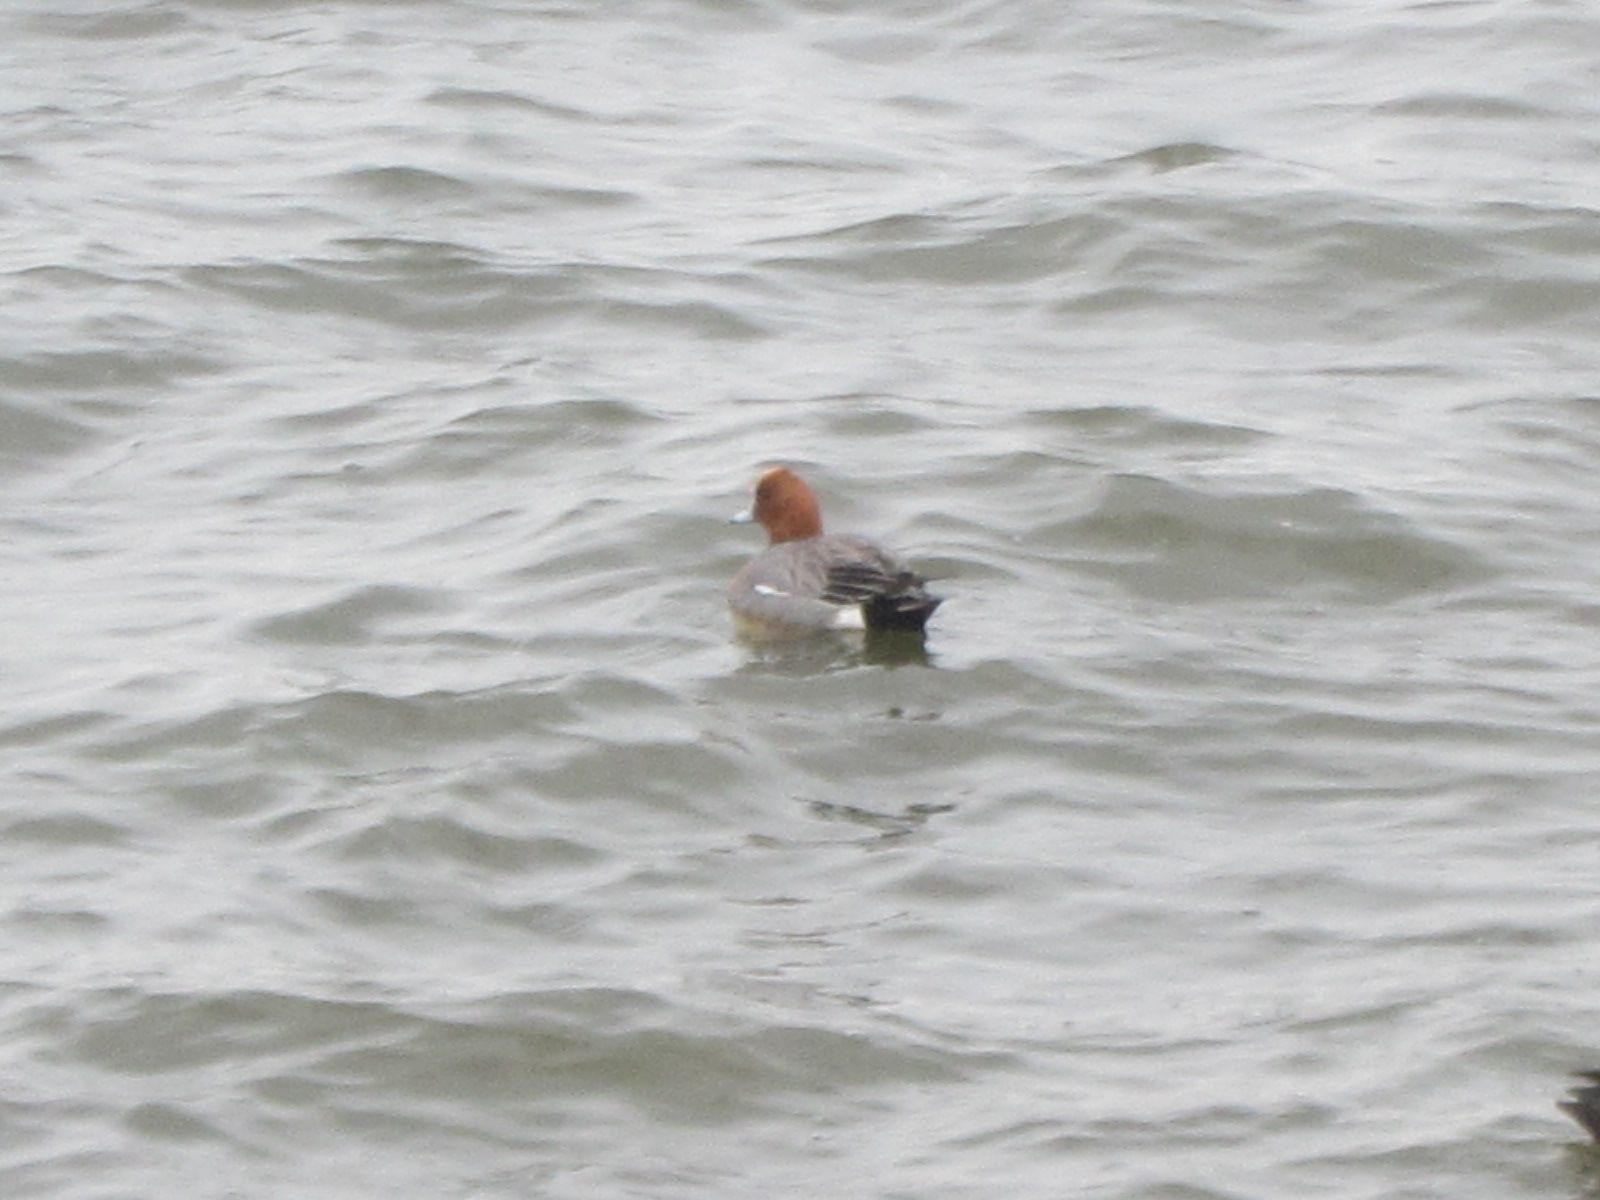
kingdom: Animalia
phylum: Chordata
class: Aves
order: Anseriformes
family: Anatidae
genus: Mareca
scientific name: Mareca penelope
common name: Eurasian wigeon
